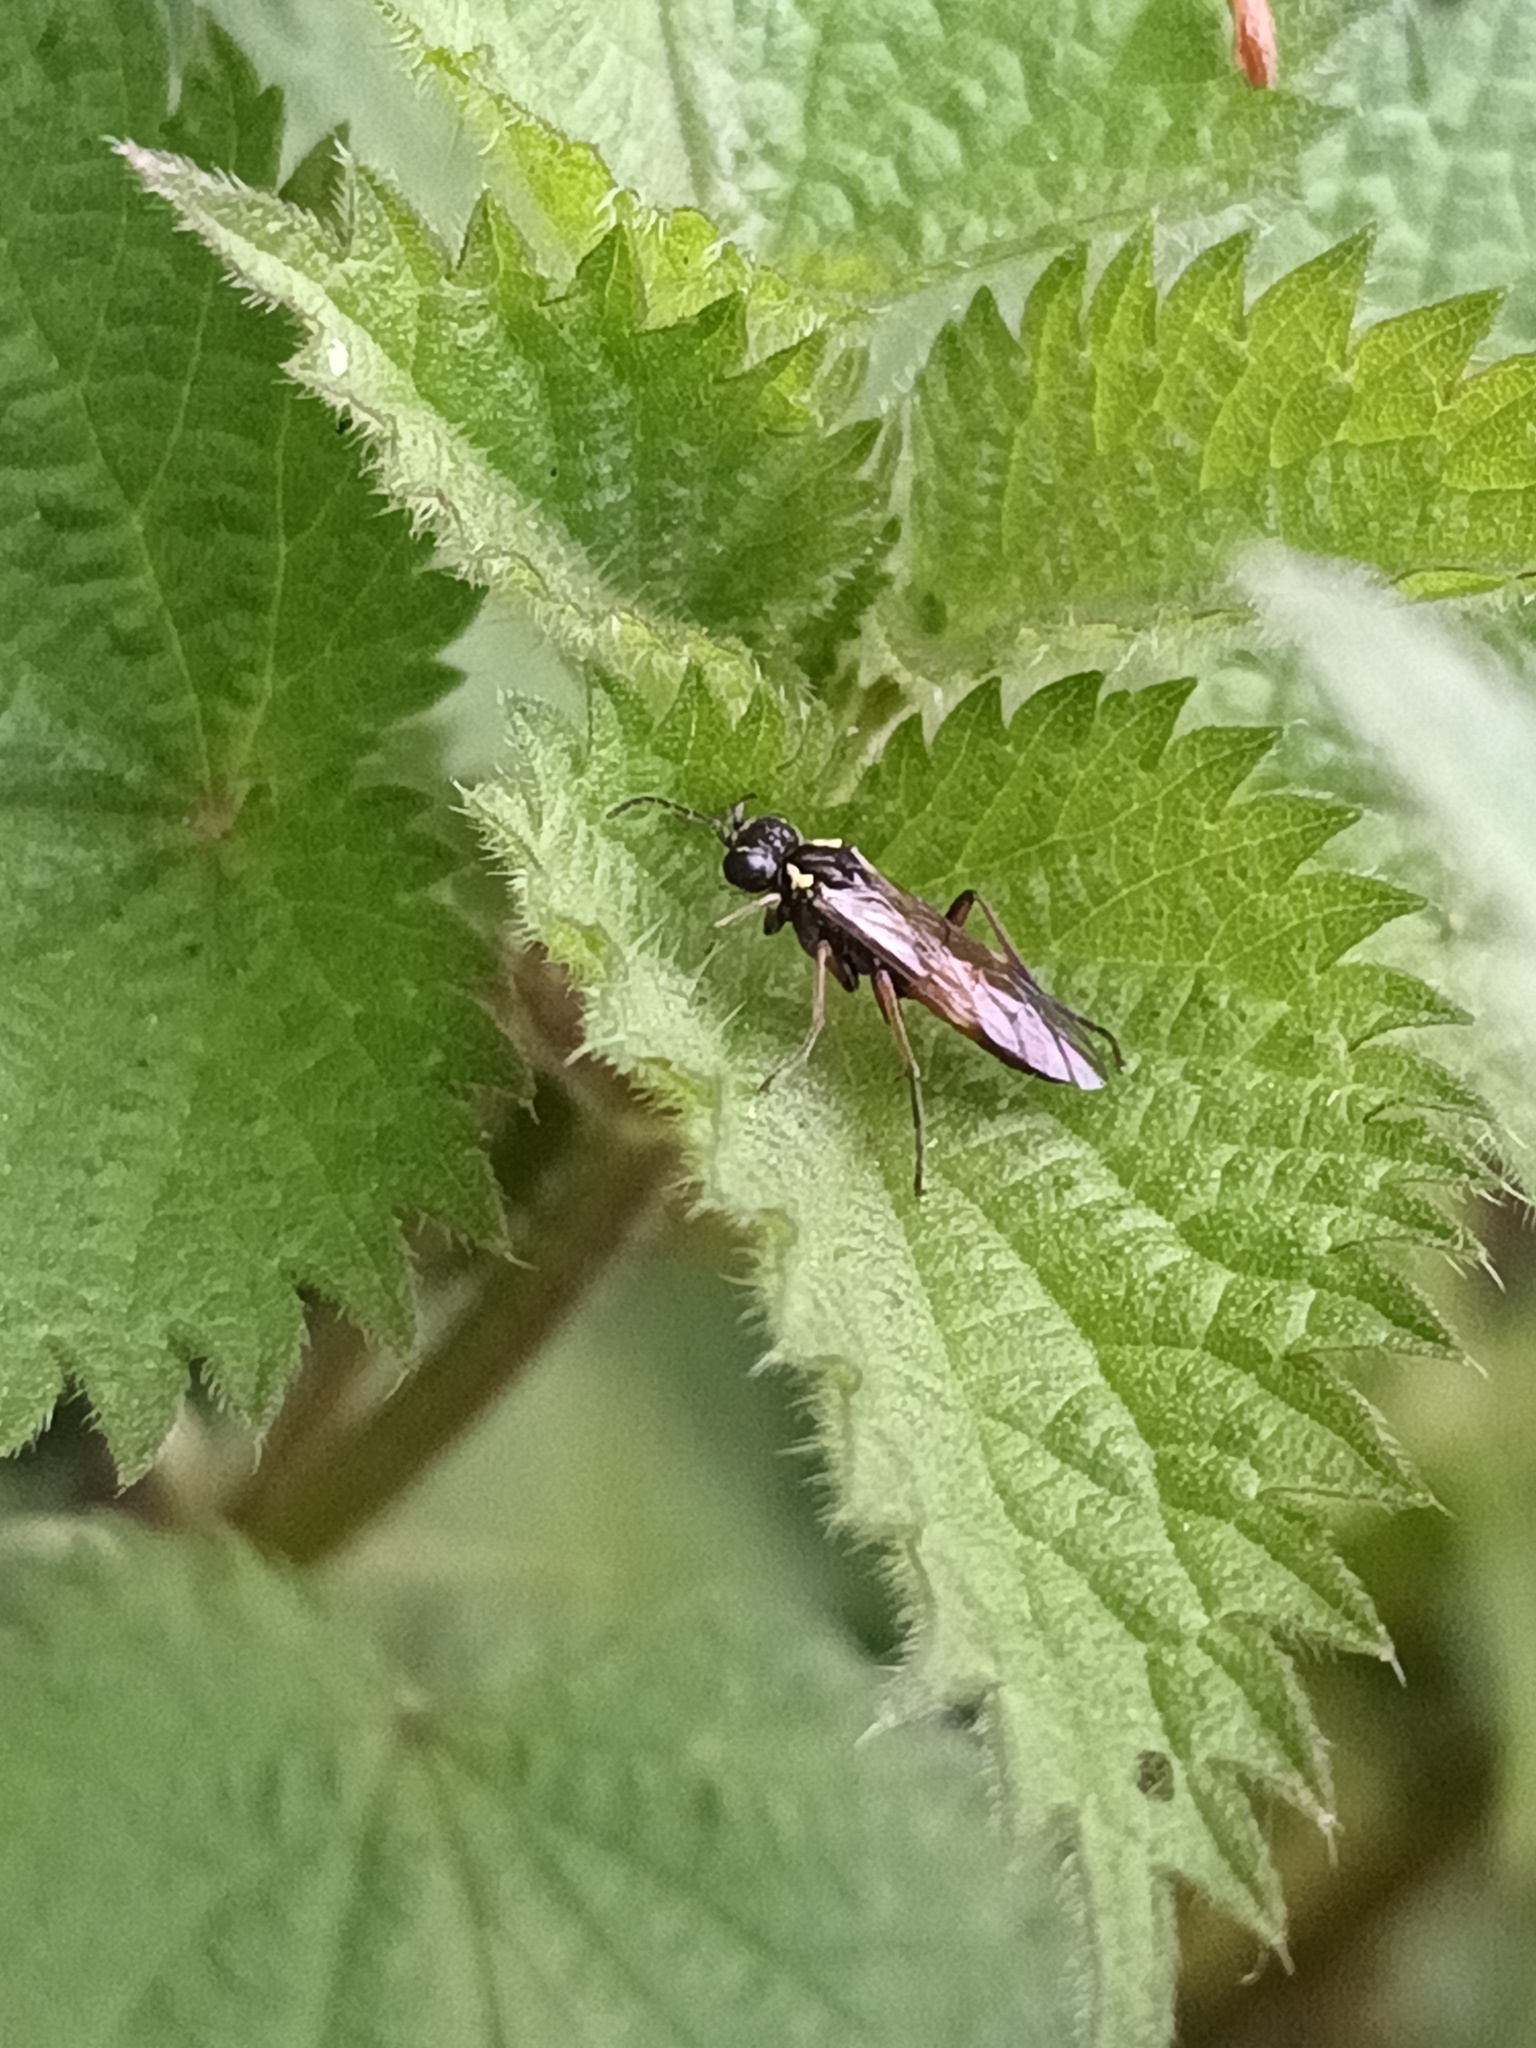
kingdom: Animalia
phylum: Arthropoda
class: Insecta
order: Hymenoptera
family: Tenthredinidae
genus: Aglaostigma
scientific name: Aglaostigma aucupariae
